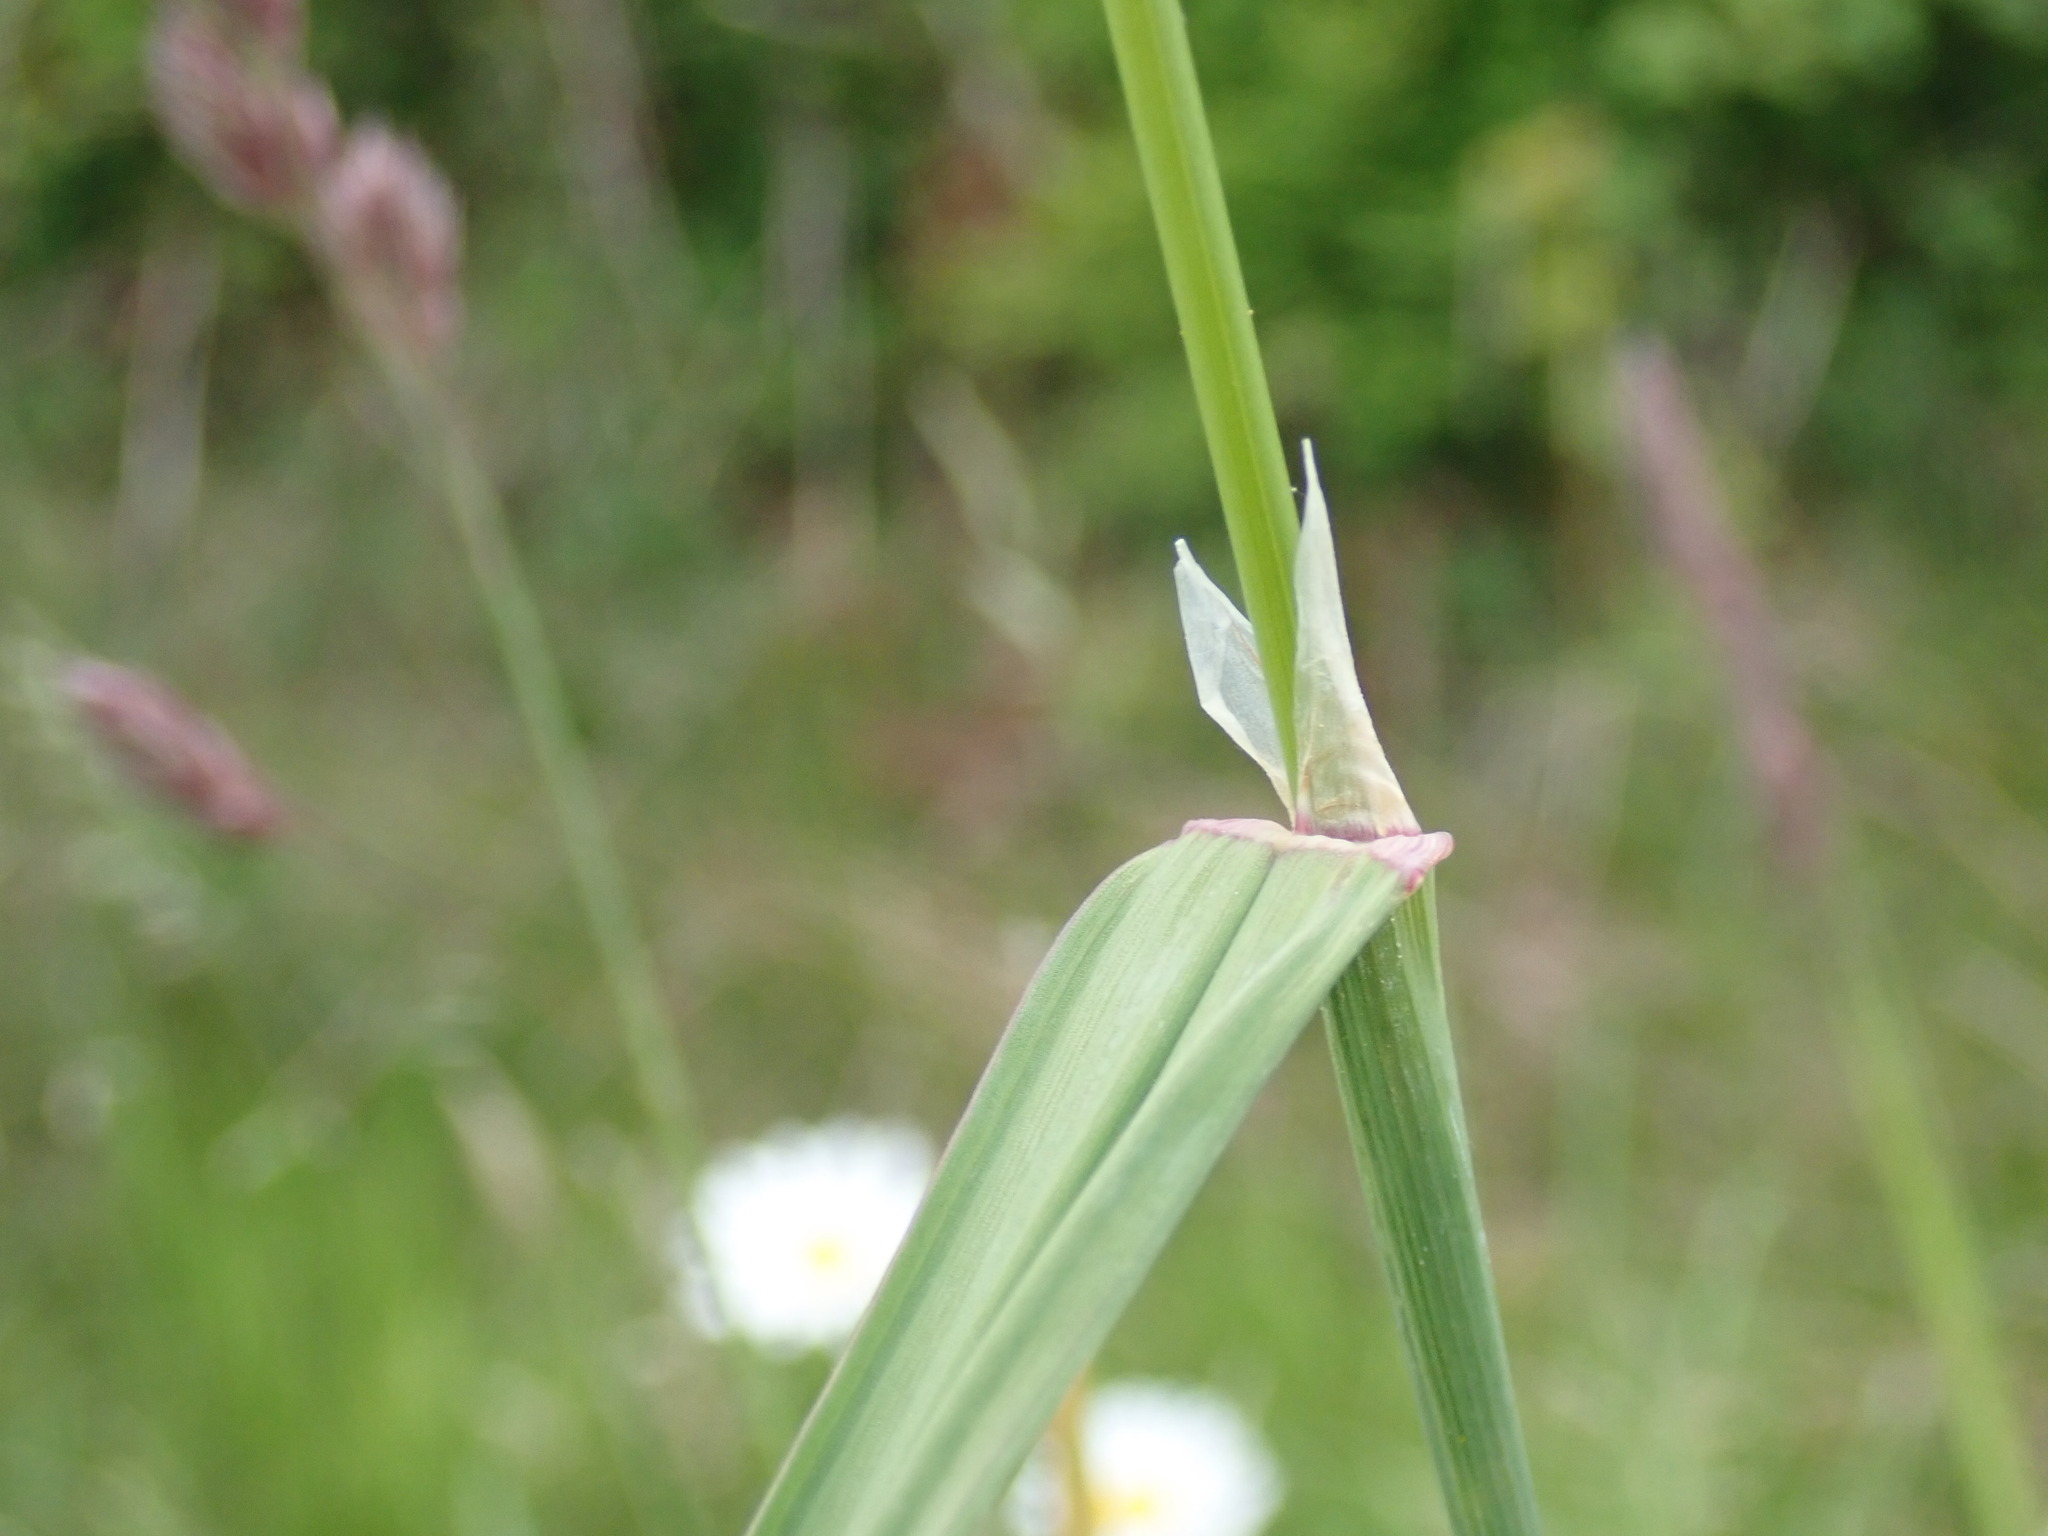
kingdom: Plantae
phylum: Tracheophyta
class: Liliopsida
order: Poales
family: Poaceae
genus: Dactylis
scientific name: Dactylis glomerata
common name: Orchardgrass
